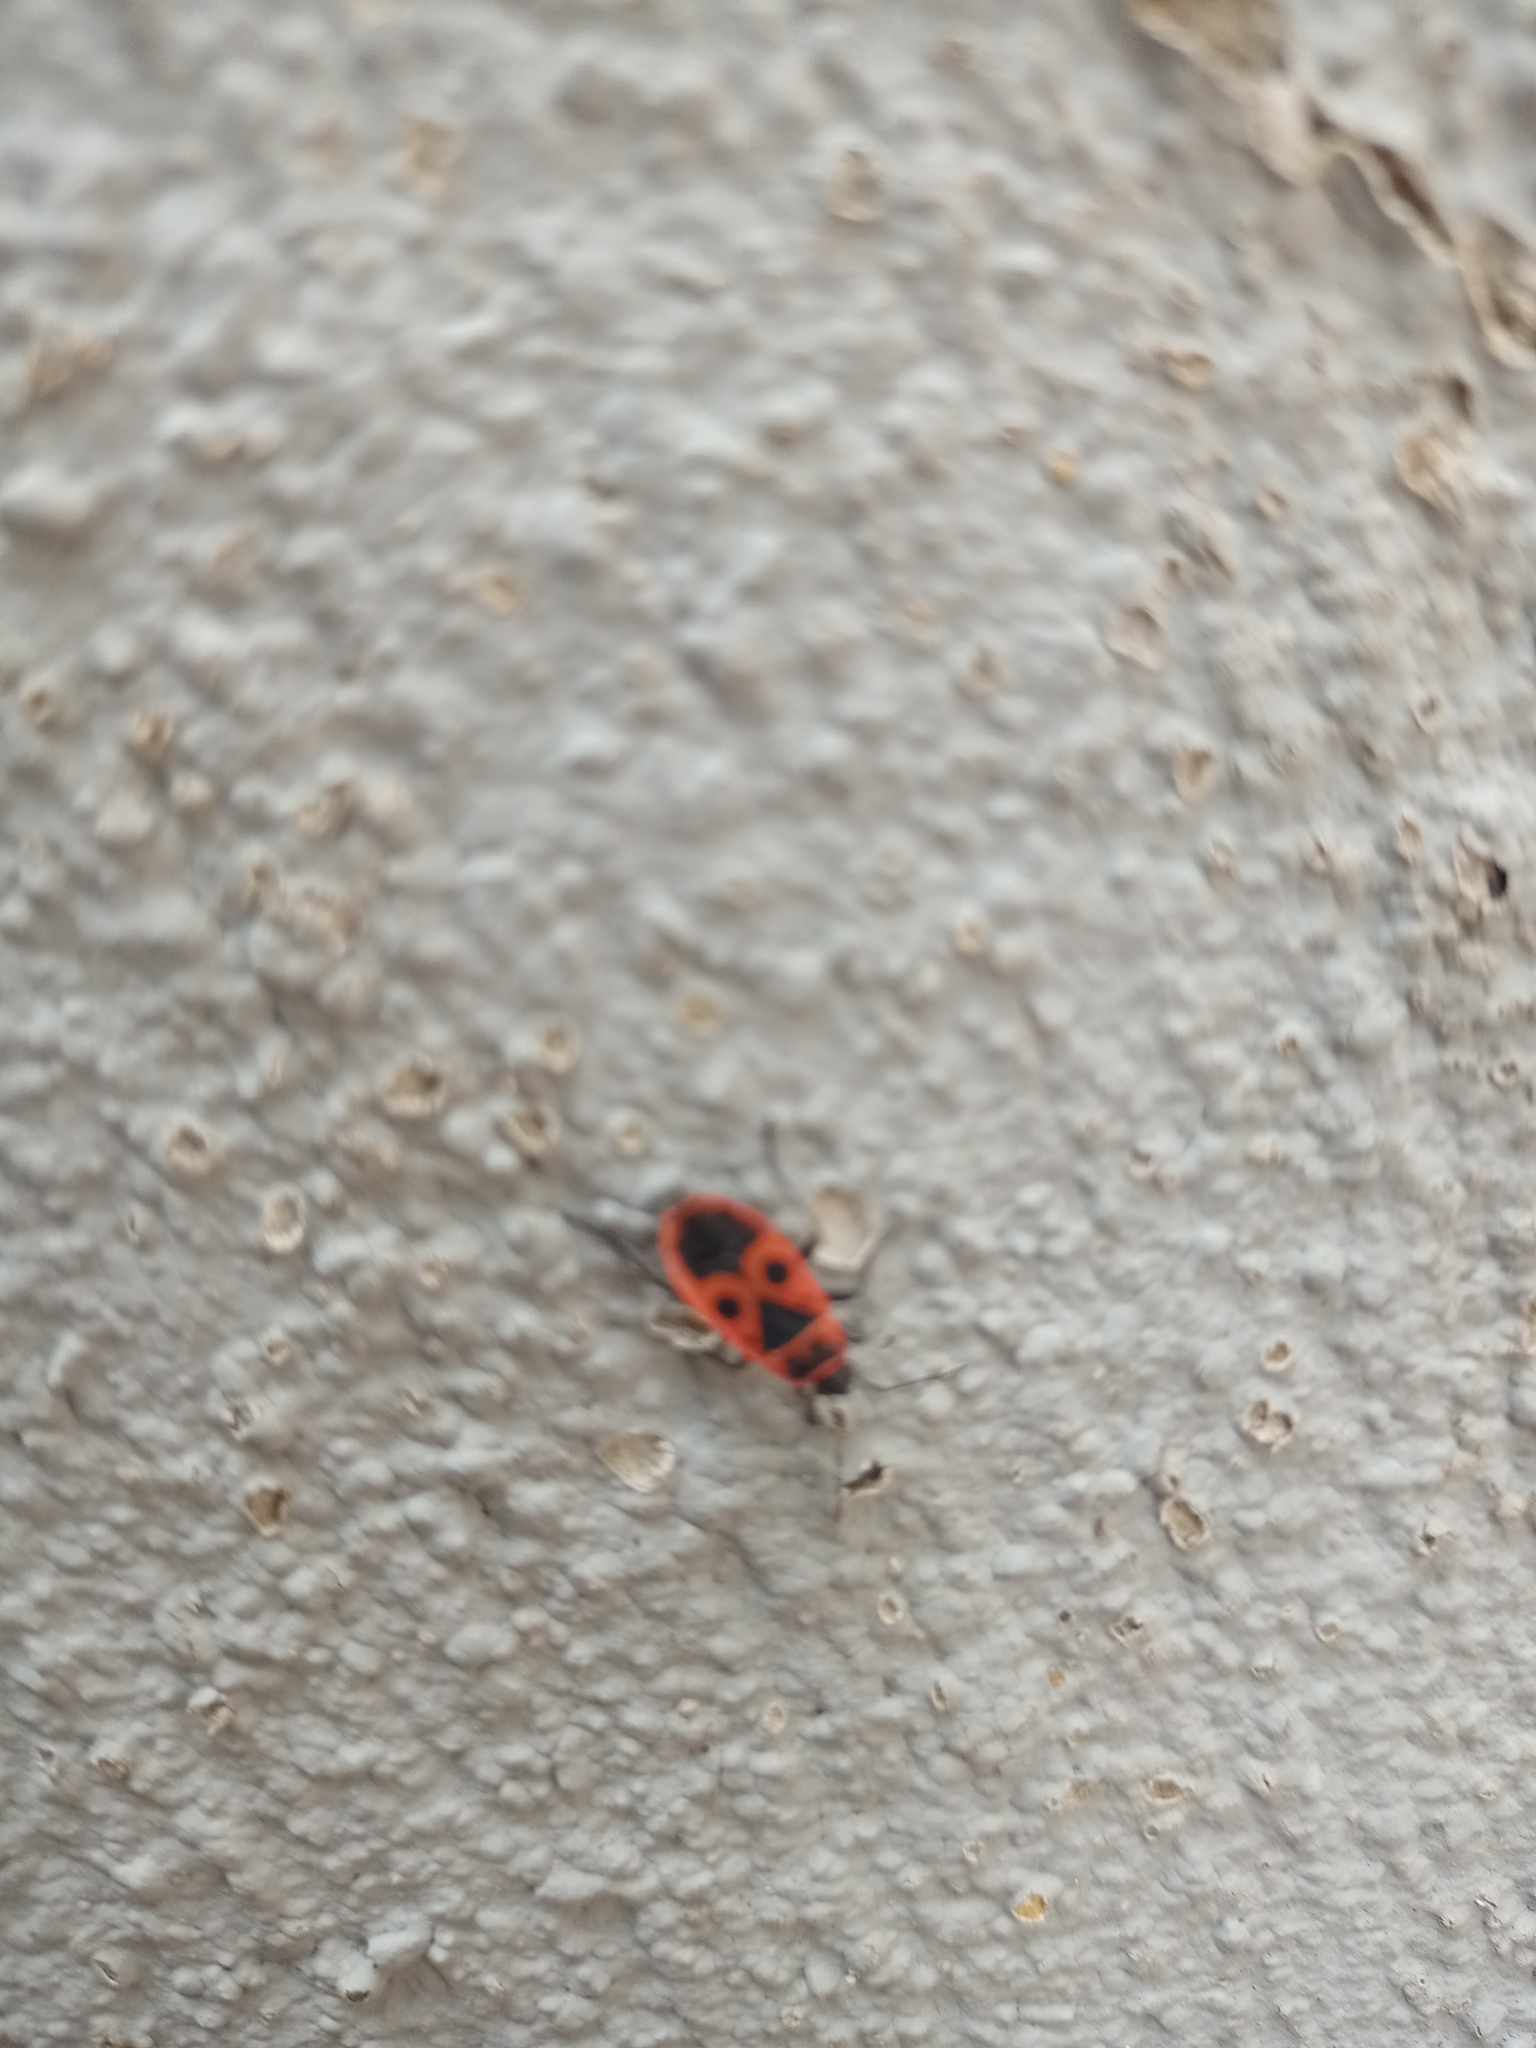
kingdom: Animalia
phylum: Arthropoda
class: Insecta
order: Hemiptera
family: Pyrrhocoridae
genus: Pyrrhocoris
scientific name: Pyrrhocoris apterus
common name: Firebug
